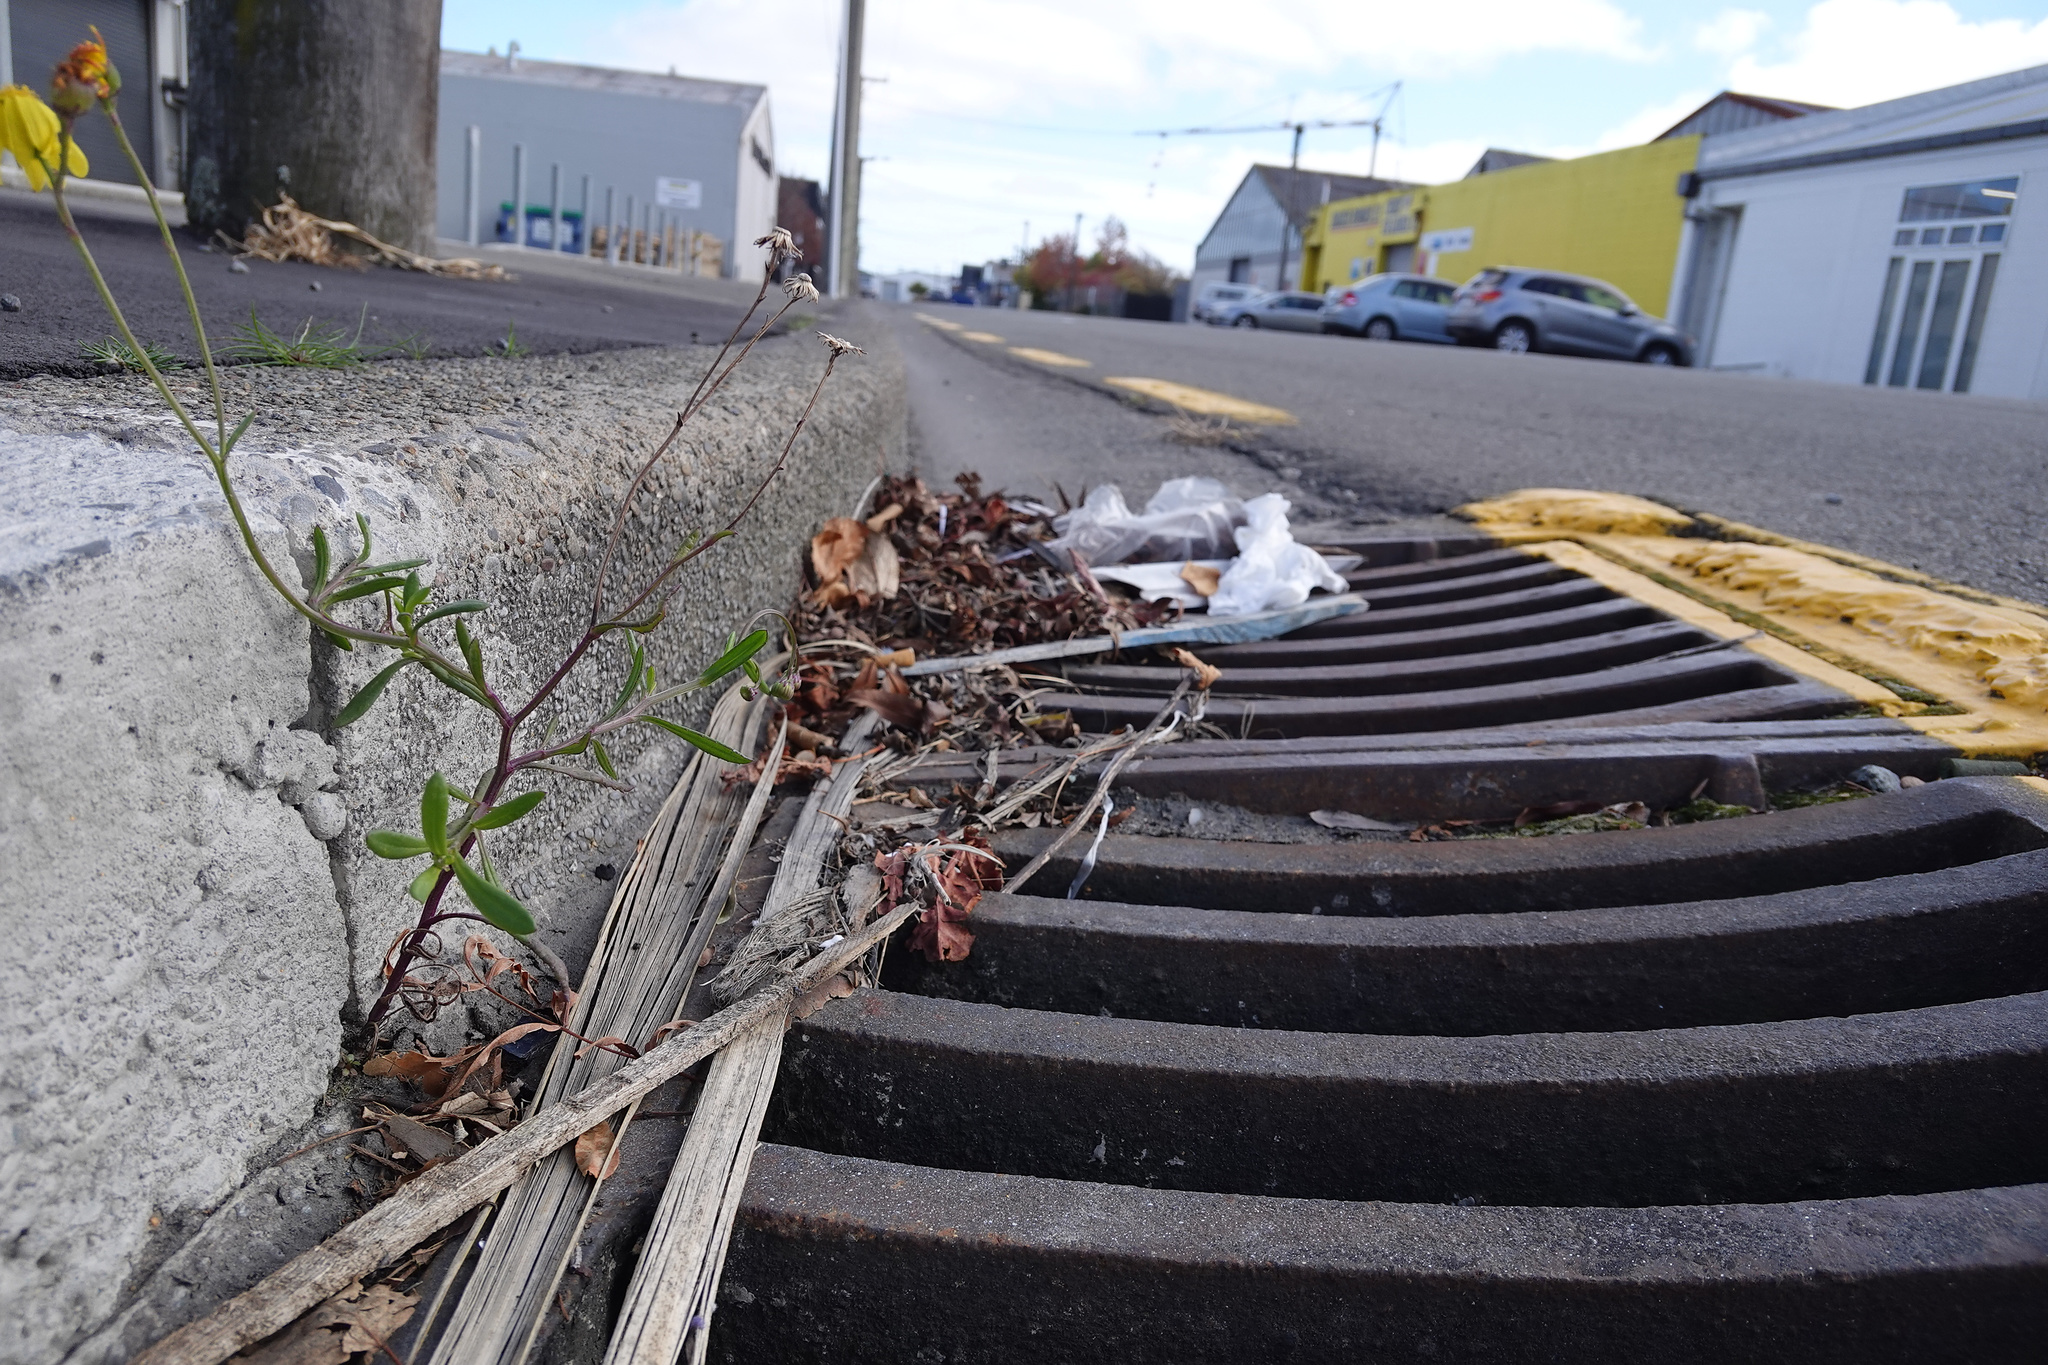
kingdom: Plantae
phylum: Tracheophyta
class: Magnoliopsida
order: Asterales
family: Asteraceae
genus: Senecio
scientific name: Senecio skirrhodon
